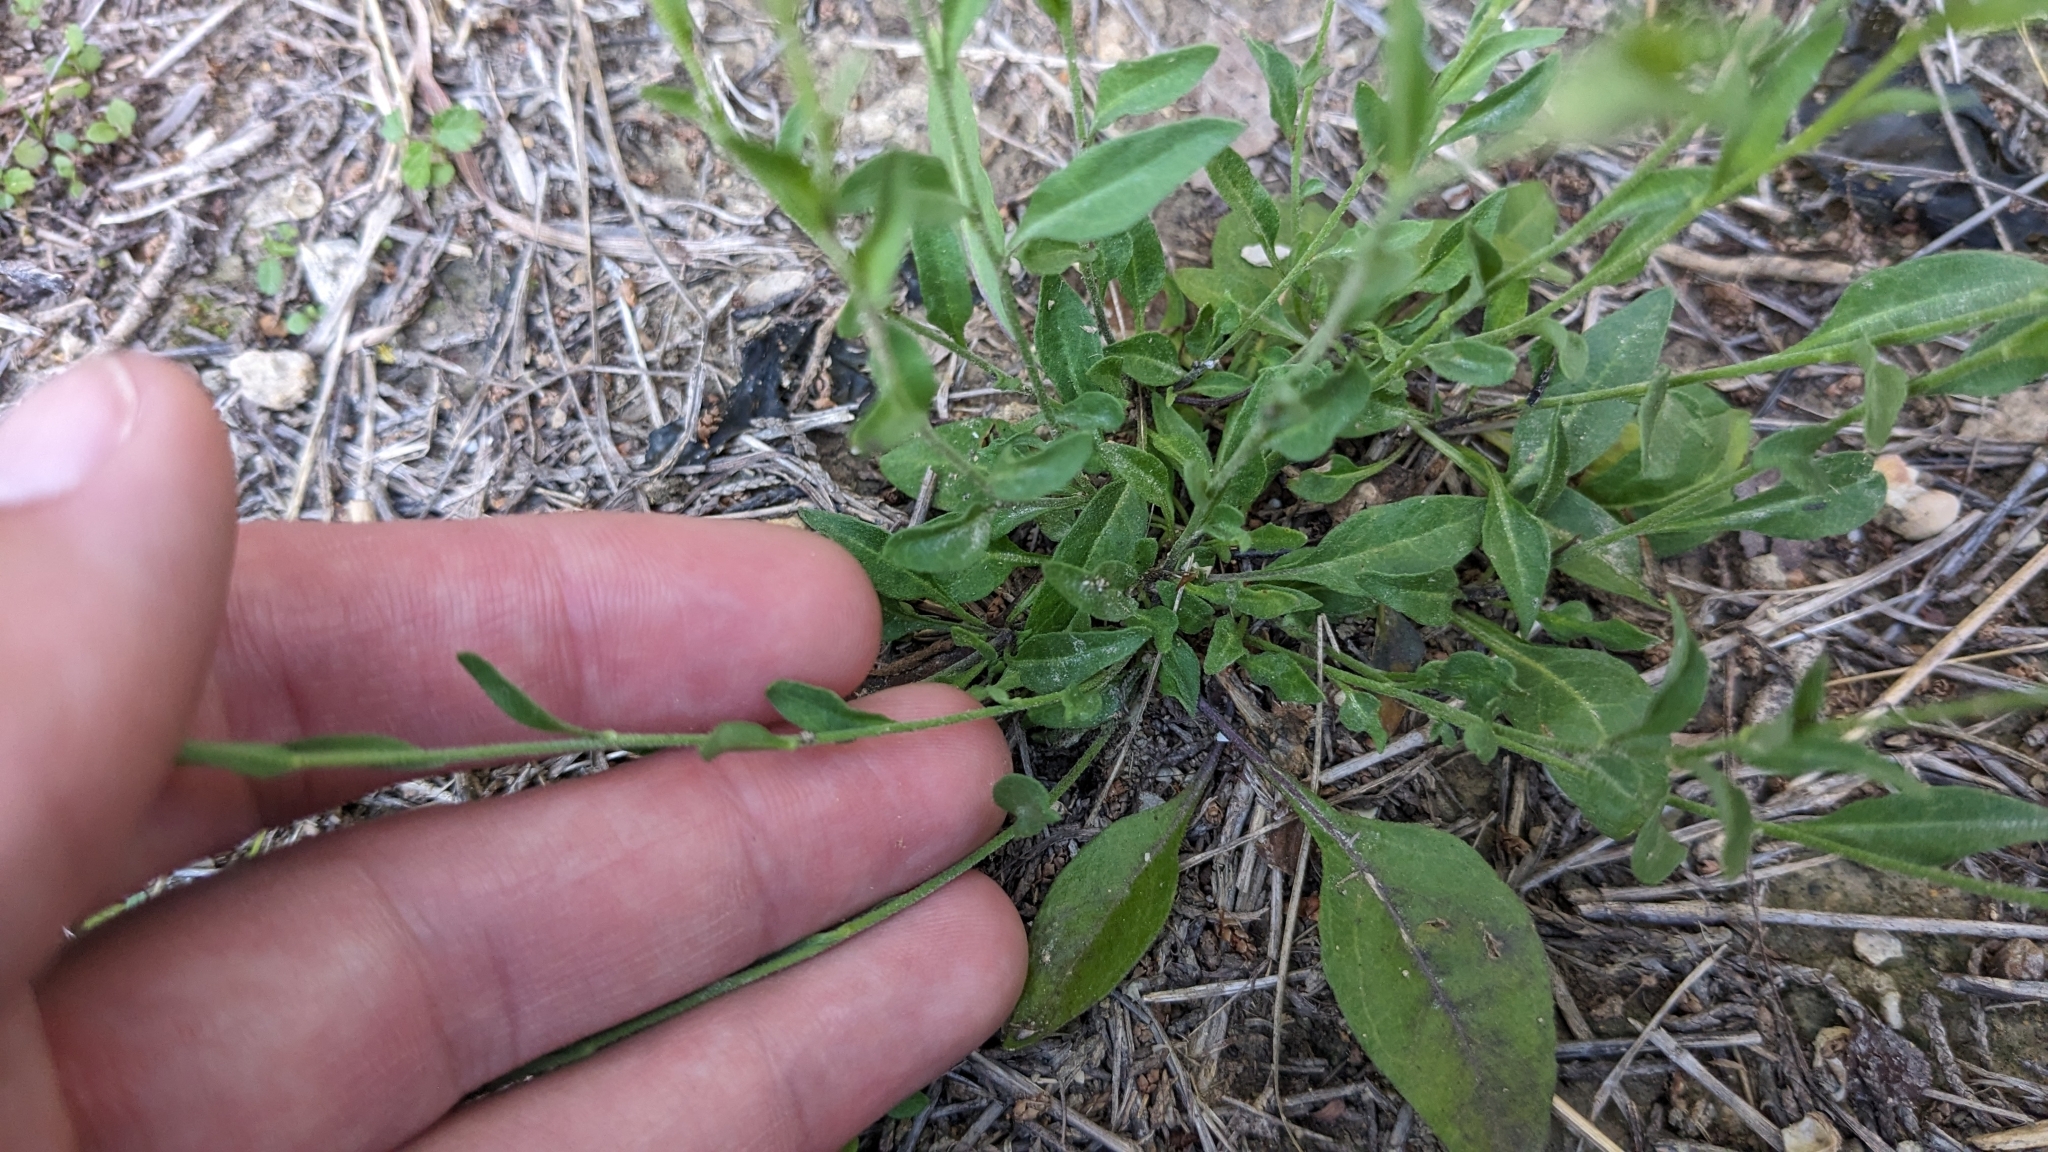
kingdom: Plantae
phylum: Tracheophyta
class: Magnoliopsida
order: Solanales
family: Solanaceae
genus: Salpiglossis
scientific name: Salpiglossis erecta
